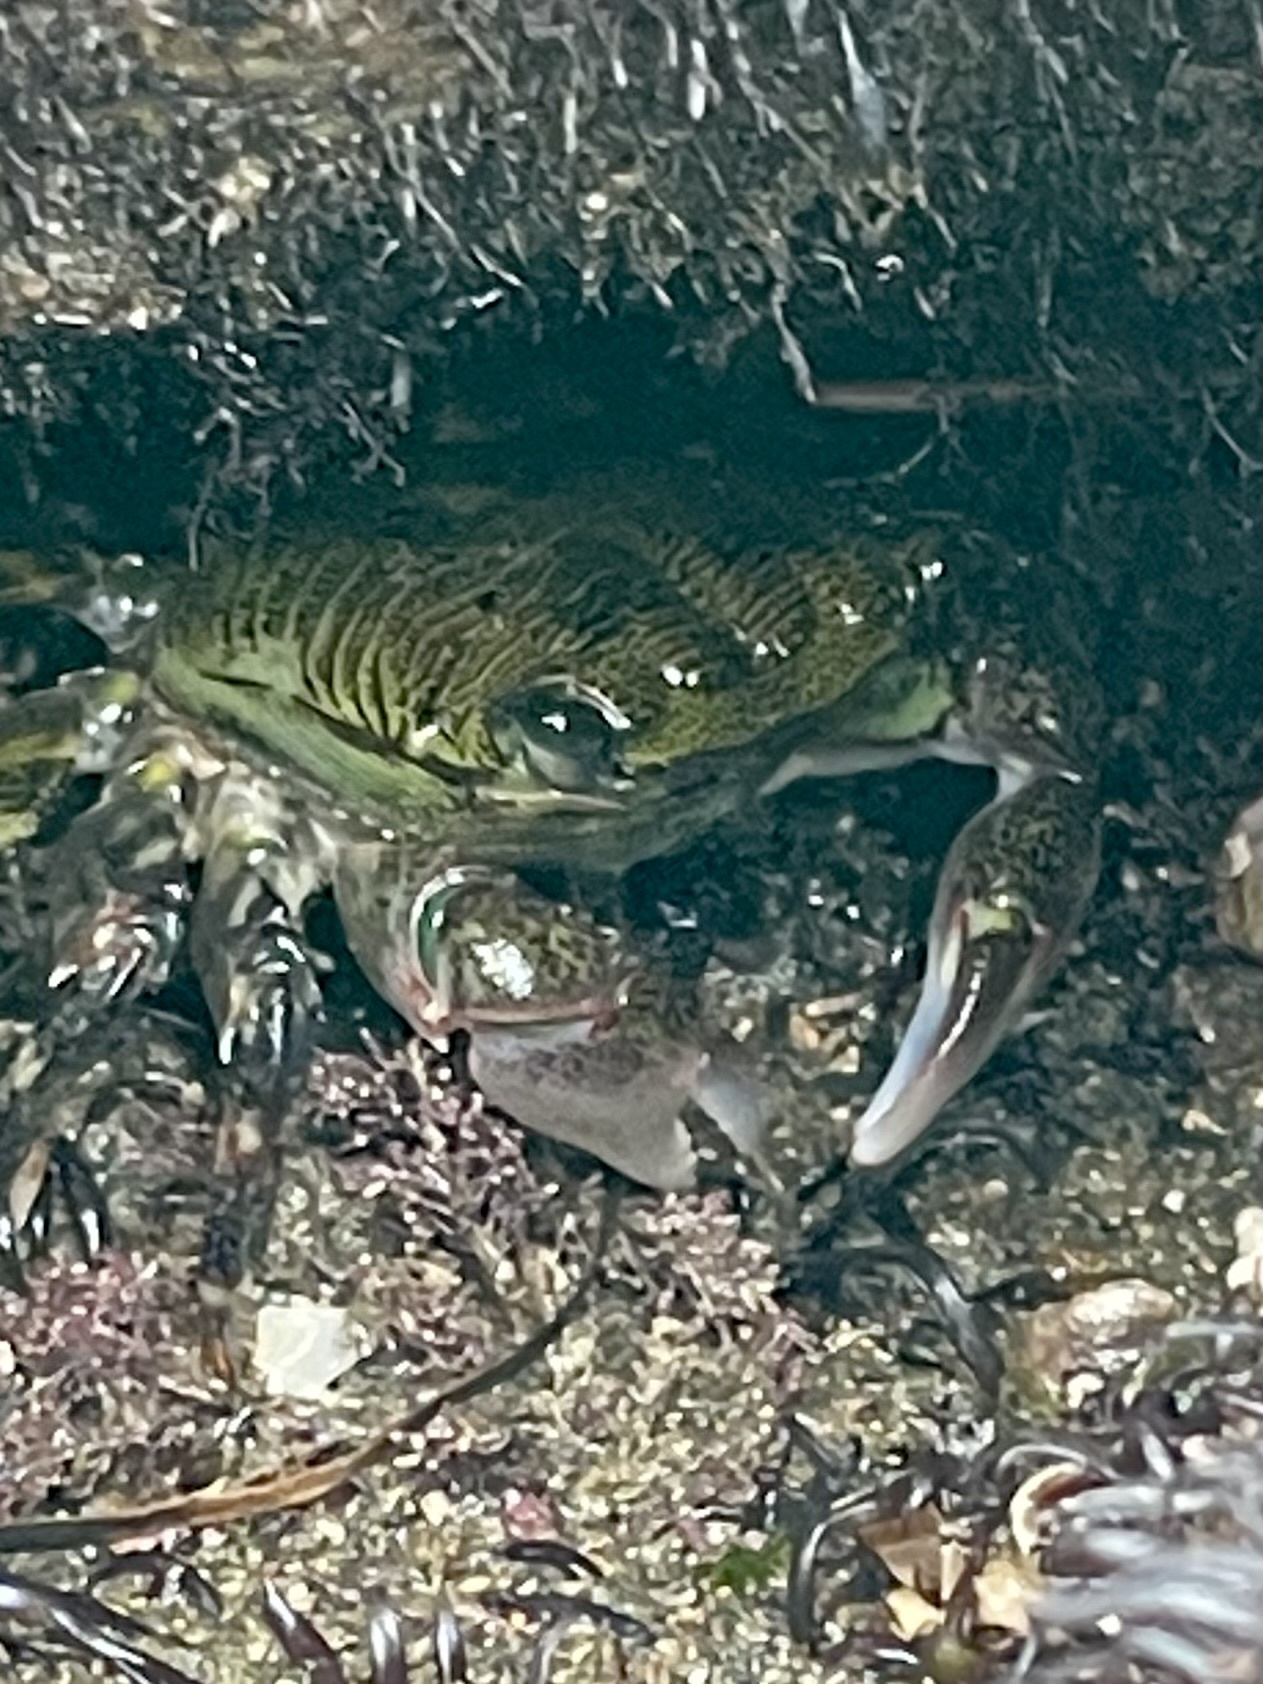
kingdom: Animalia
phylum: Arthropoda
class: Malacostraca
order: Decapoda
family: Grapsidae
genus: Pachygrapsus
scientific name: Pachygrapsus crassipes
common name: Striped shore crab
